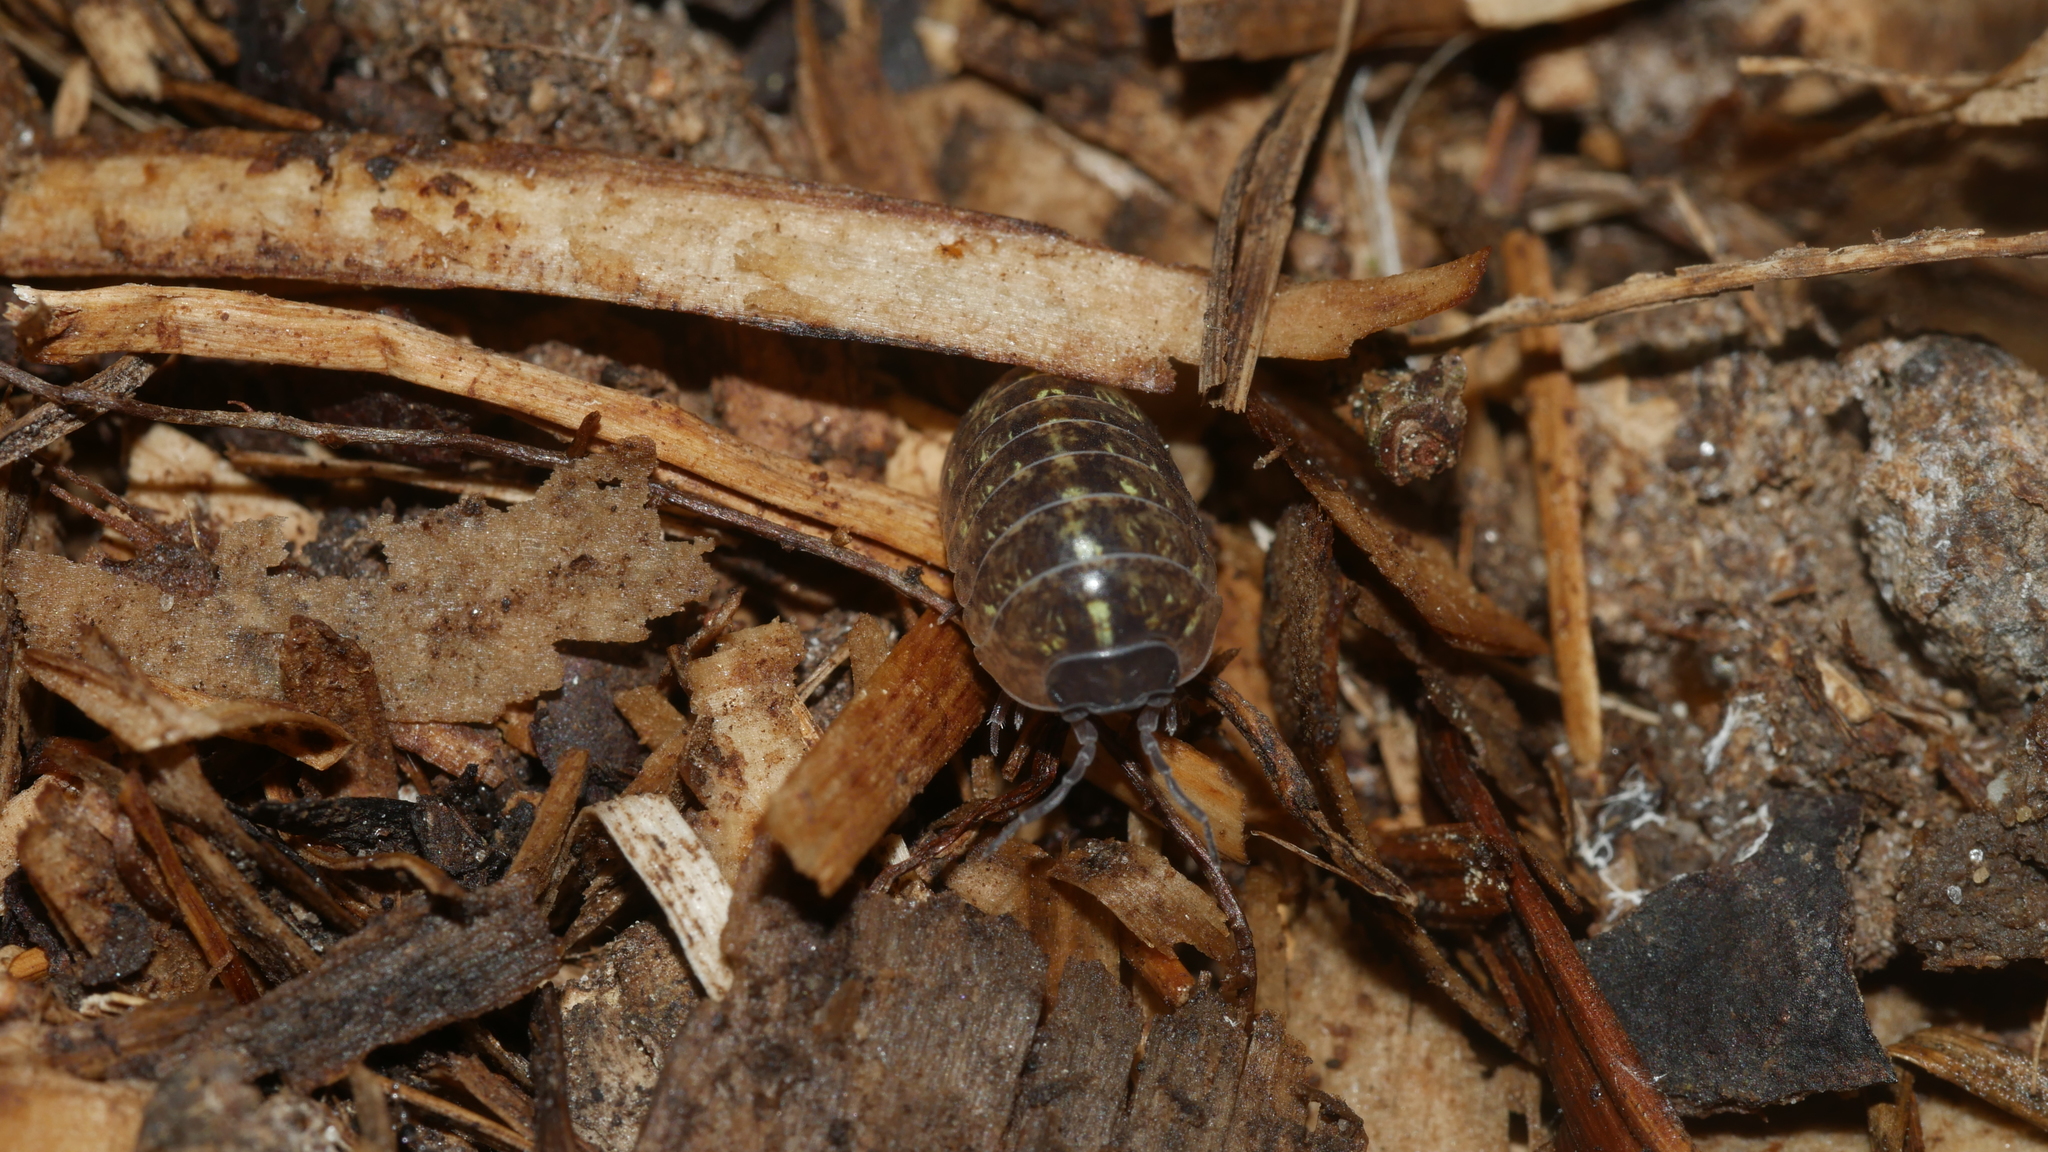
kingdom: Animalia
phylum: Arthropoda
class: Malacostraca
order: Isopoda
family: Armadillidiidae
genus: Armadillidium
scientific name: Armadillidium vulgare
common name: Common pill woodlouse
